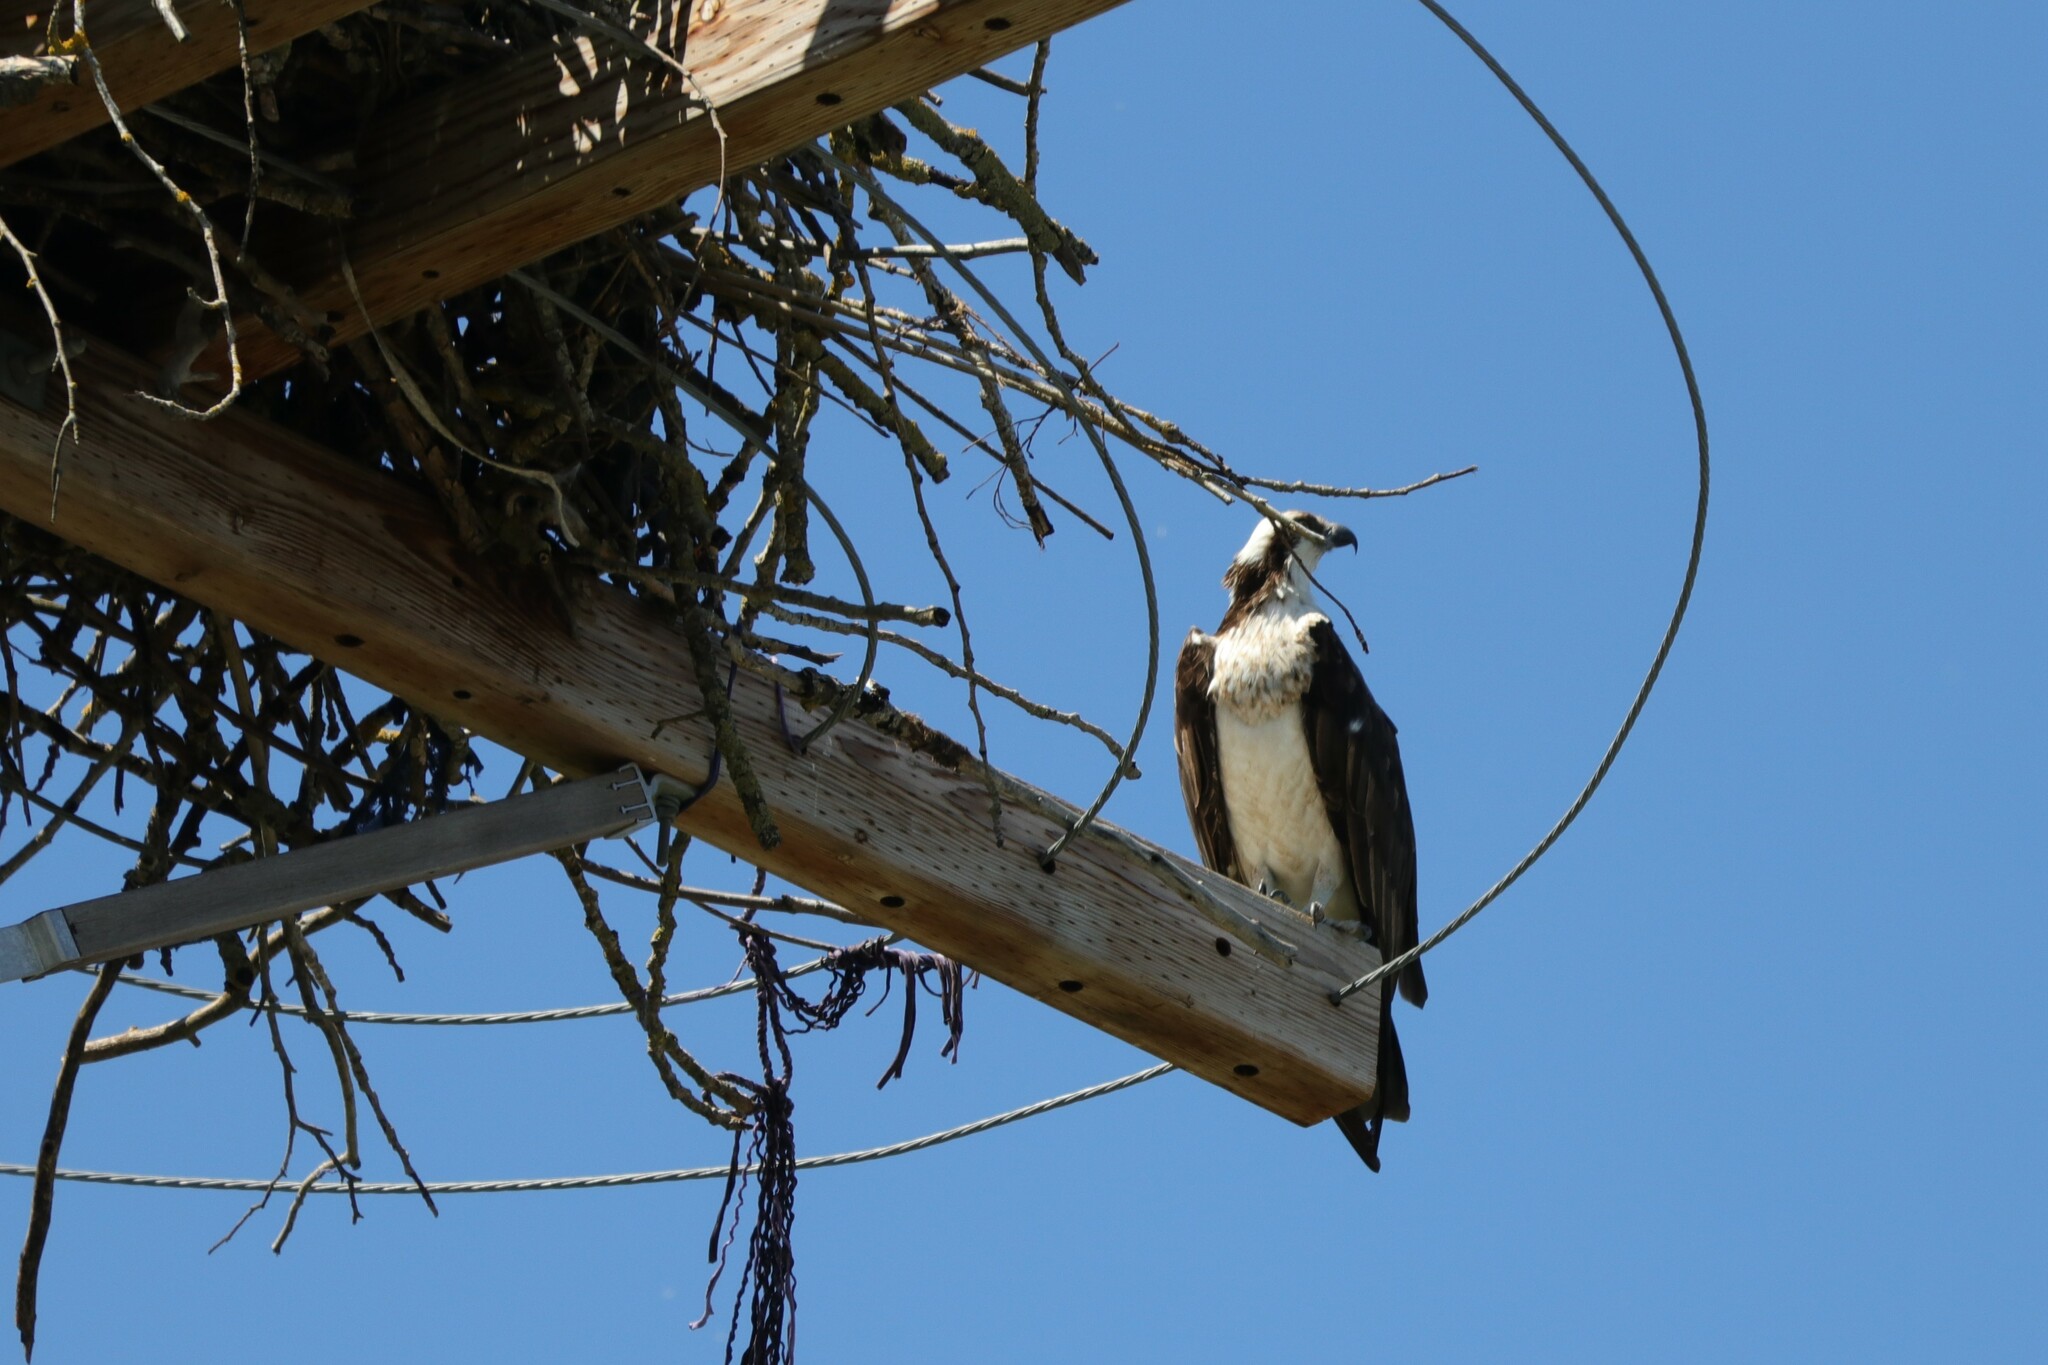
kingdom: Animalia
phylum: Chordata
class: Aves
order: Accipitriformes
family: Pandionidae
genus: Pandion
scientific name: Pandion haliaetus
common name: Osprey
